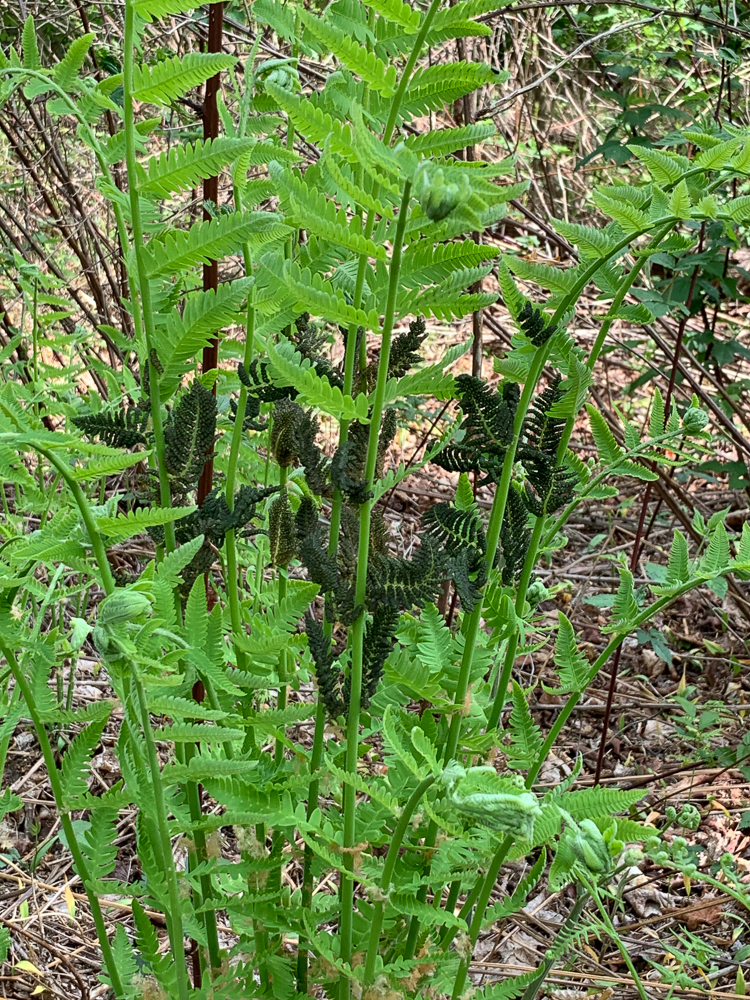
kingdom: Plantae
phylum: Tracheophyta
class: Polypodiopsida
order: Osmundales
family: Osmundaceae
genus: Claytosmunda
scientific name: Claytosmunda claytoniana
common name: Clayton's fern
